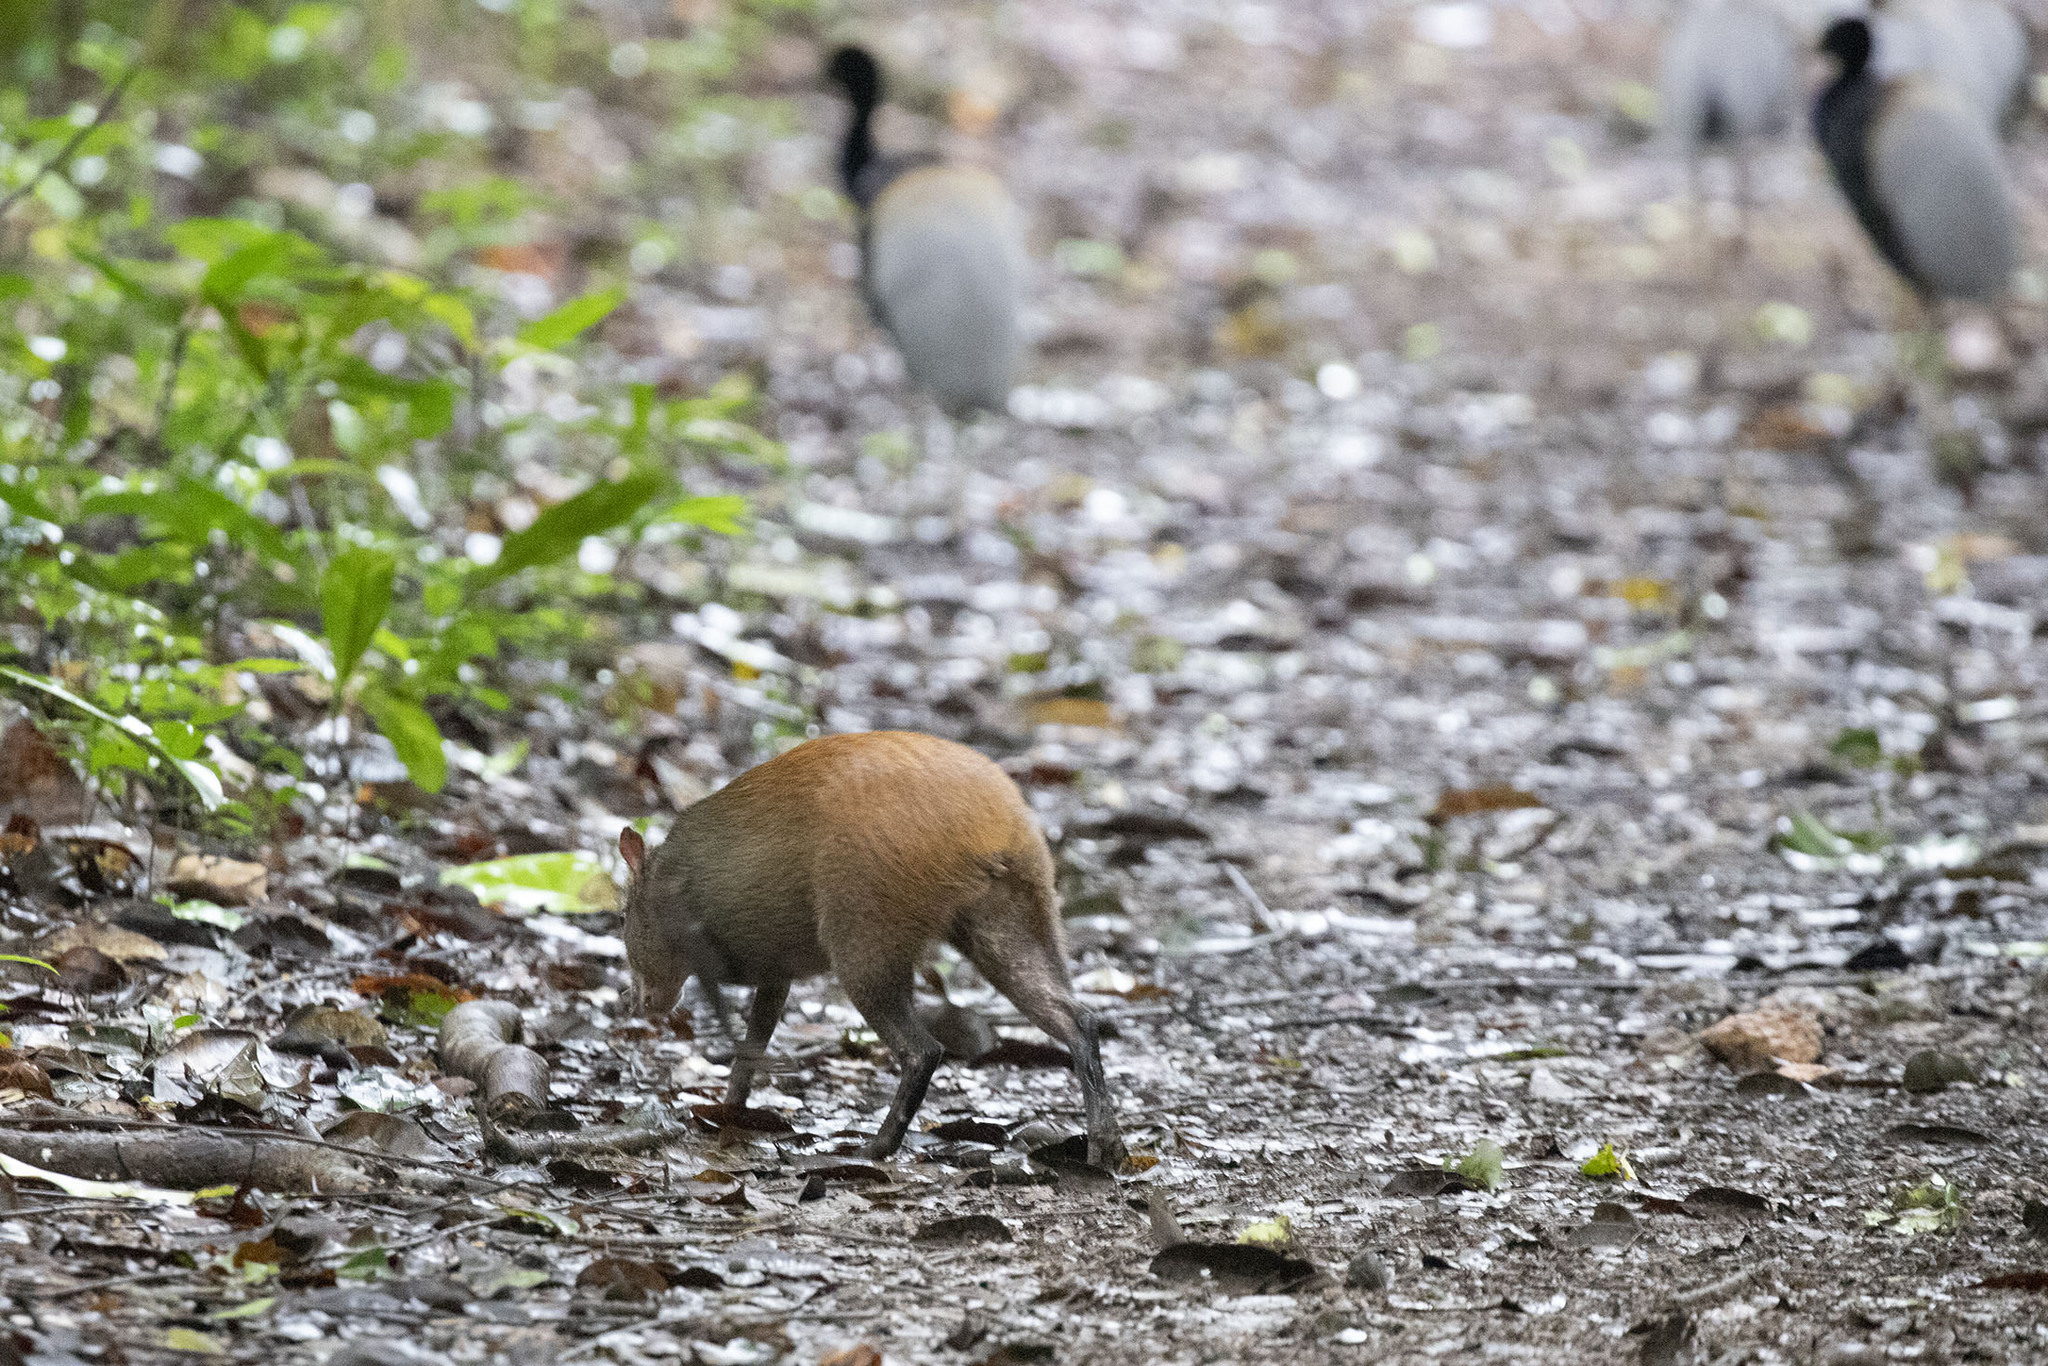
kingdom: Animalia
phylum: Chordata
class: Mammalia
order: Rodentia
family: Dasyproctidae
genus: Dasyprocta
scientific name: Dasyprocta leporina
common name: Red-rumped agouti
